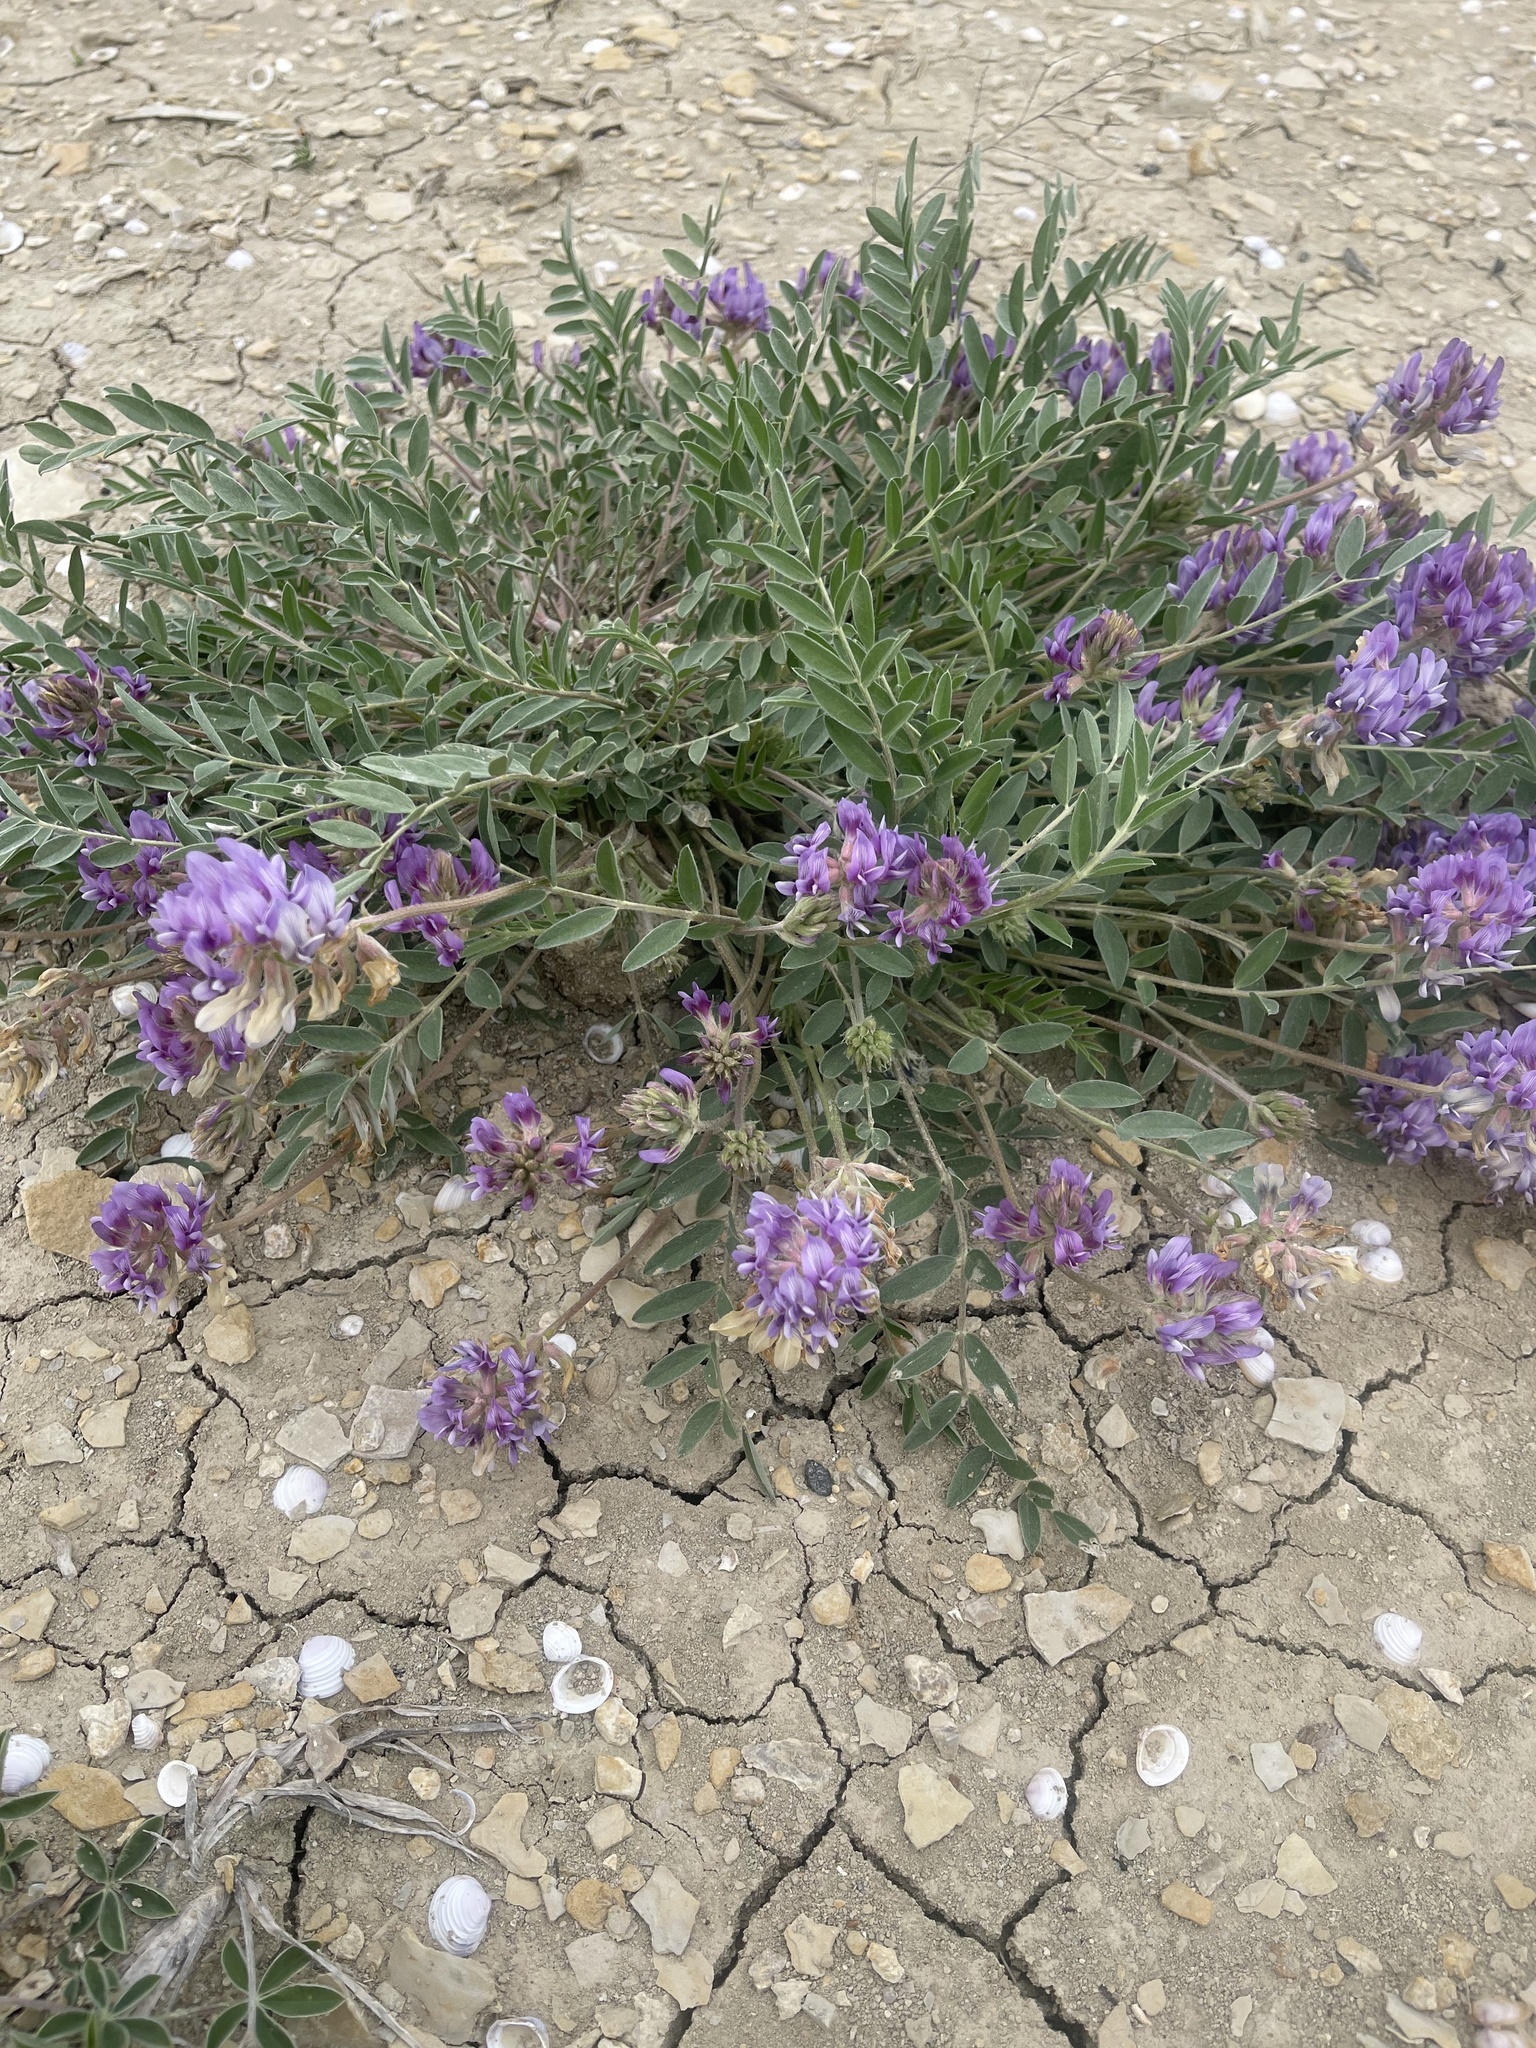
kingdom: Plantae
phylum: Tracheophyta
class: Magnoliopsida
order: Fabales
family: Fabaceae
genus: Astragalus
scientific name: Astragalus lotiflorus
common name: Lotus milk-vetch
